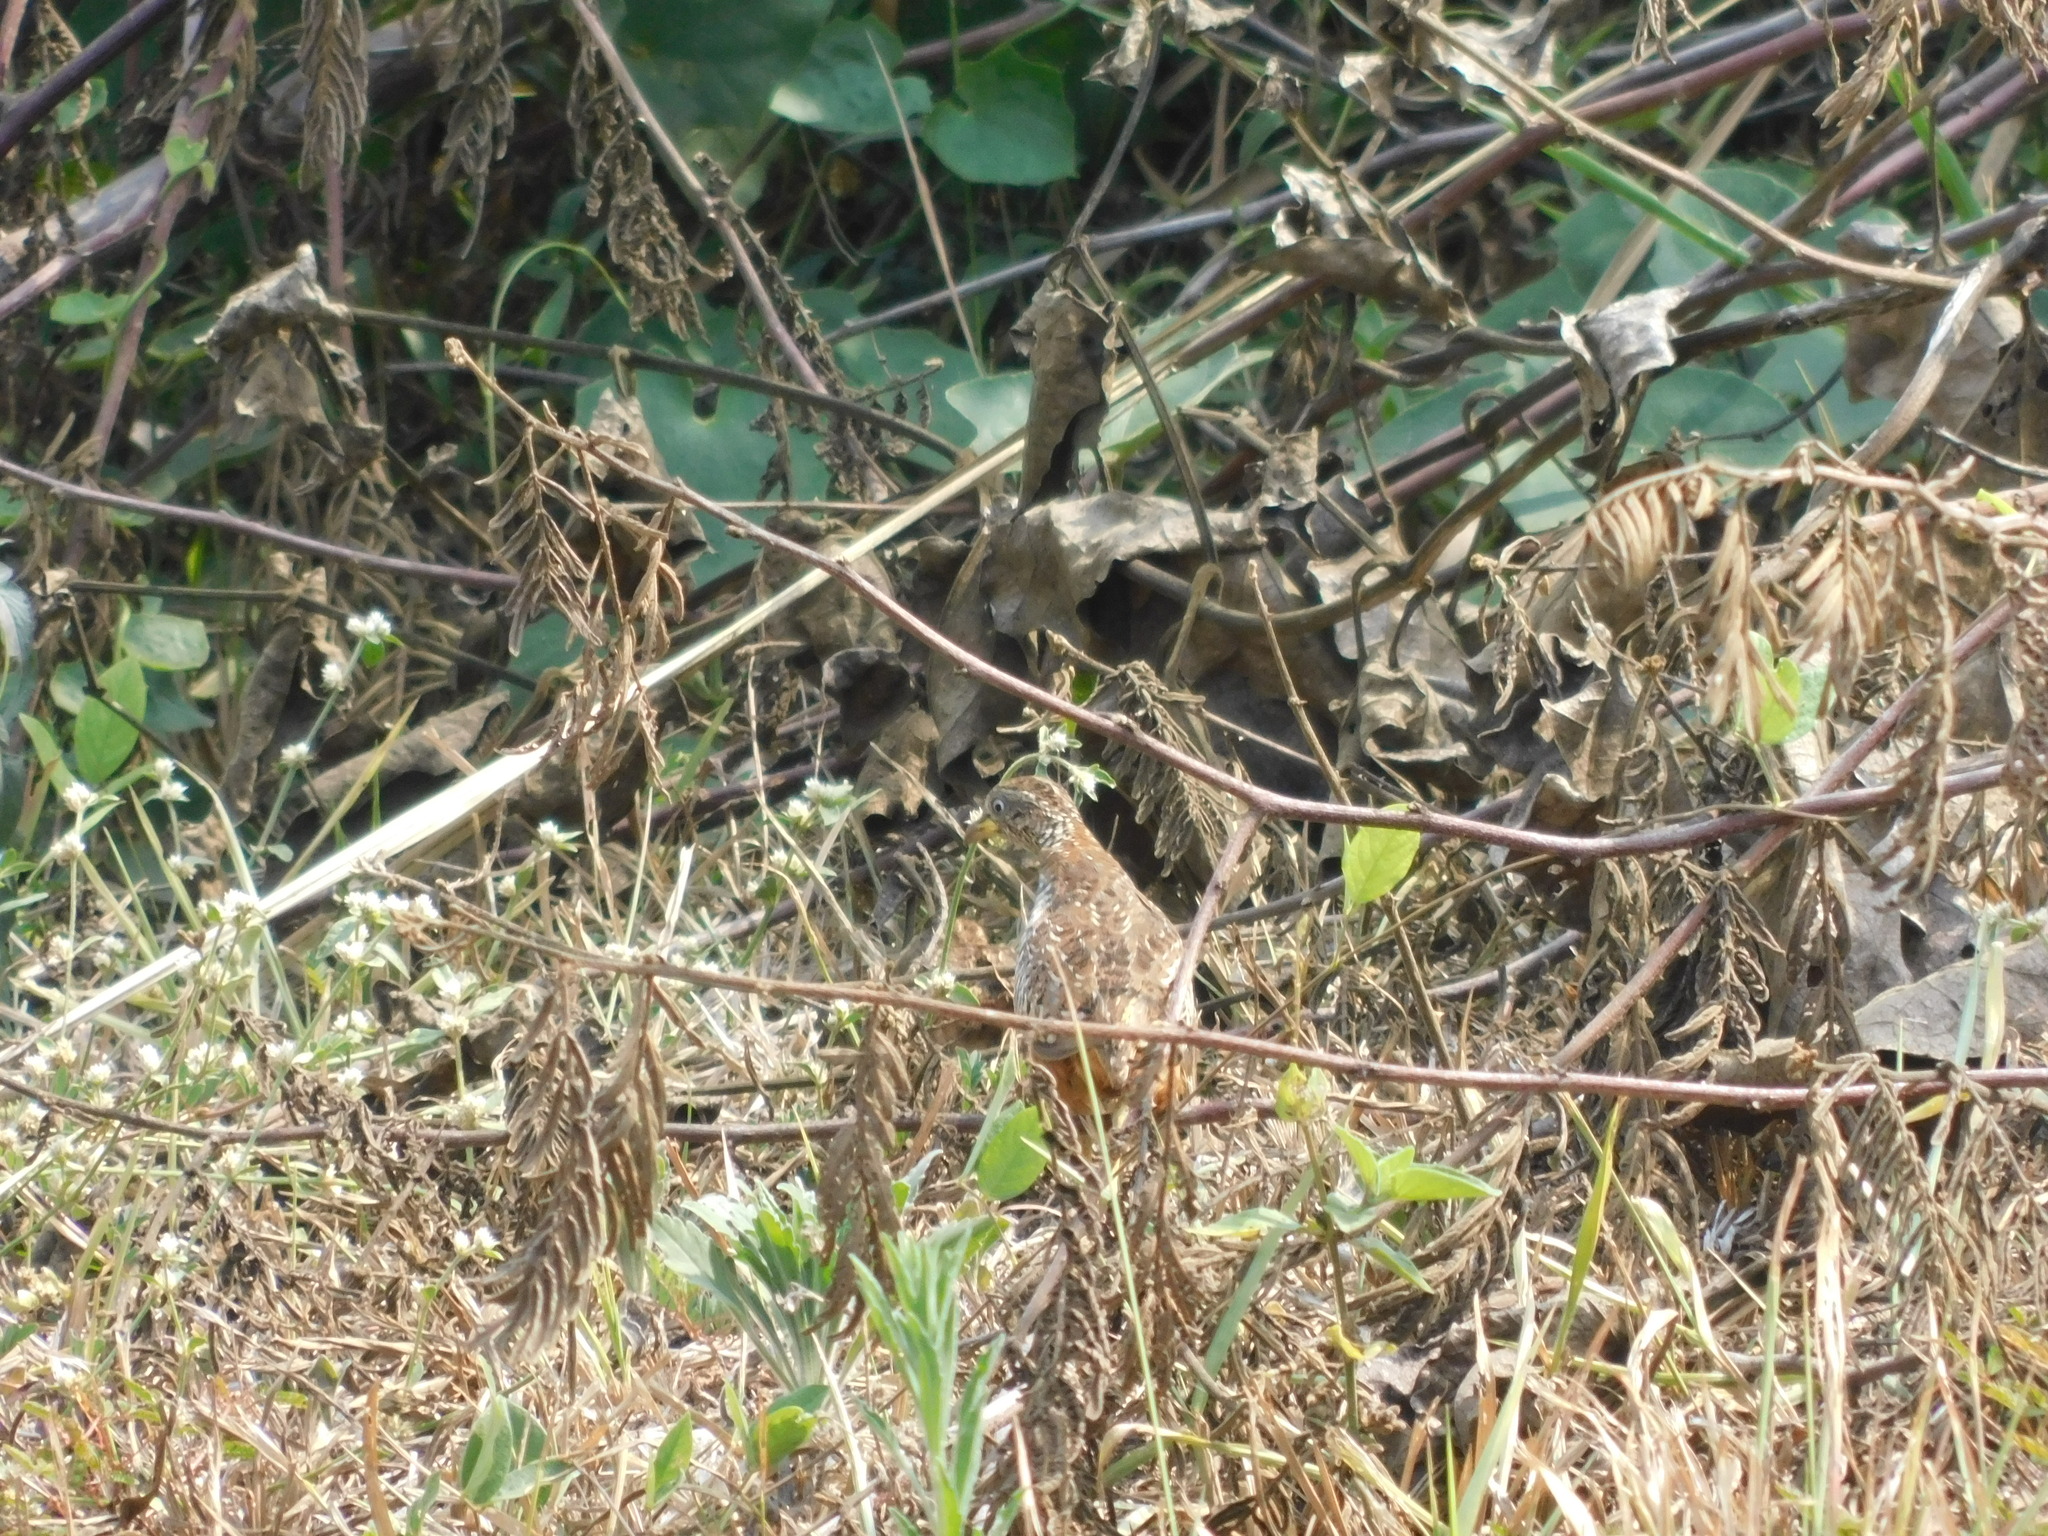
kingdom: Animalia
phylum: Chordata
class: Aves
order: Charadriiformes
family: Turnicidae
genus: Turnix
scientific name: Turnix suscitator
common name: Barred buttonquail
